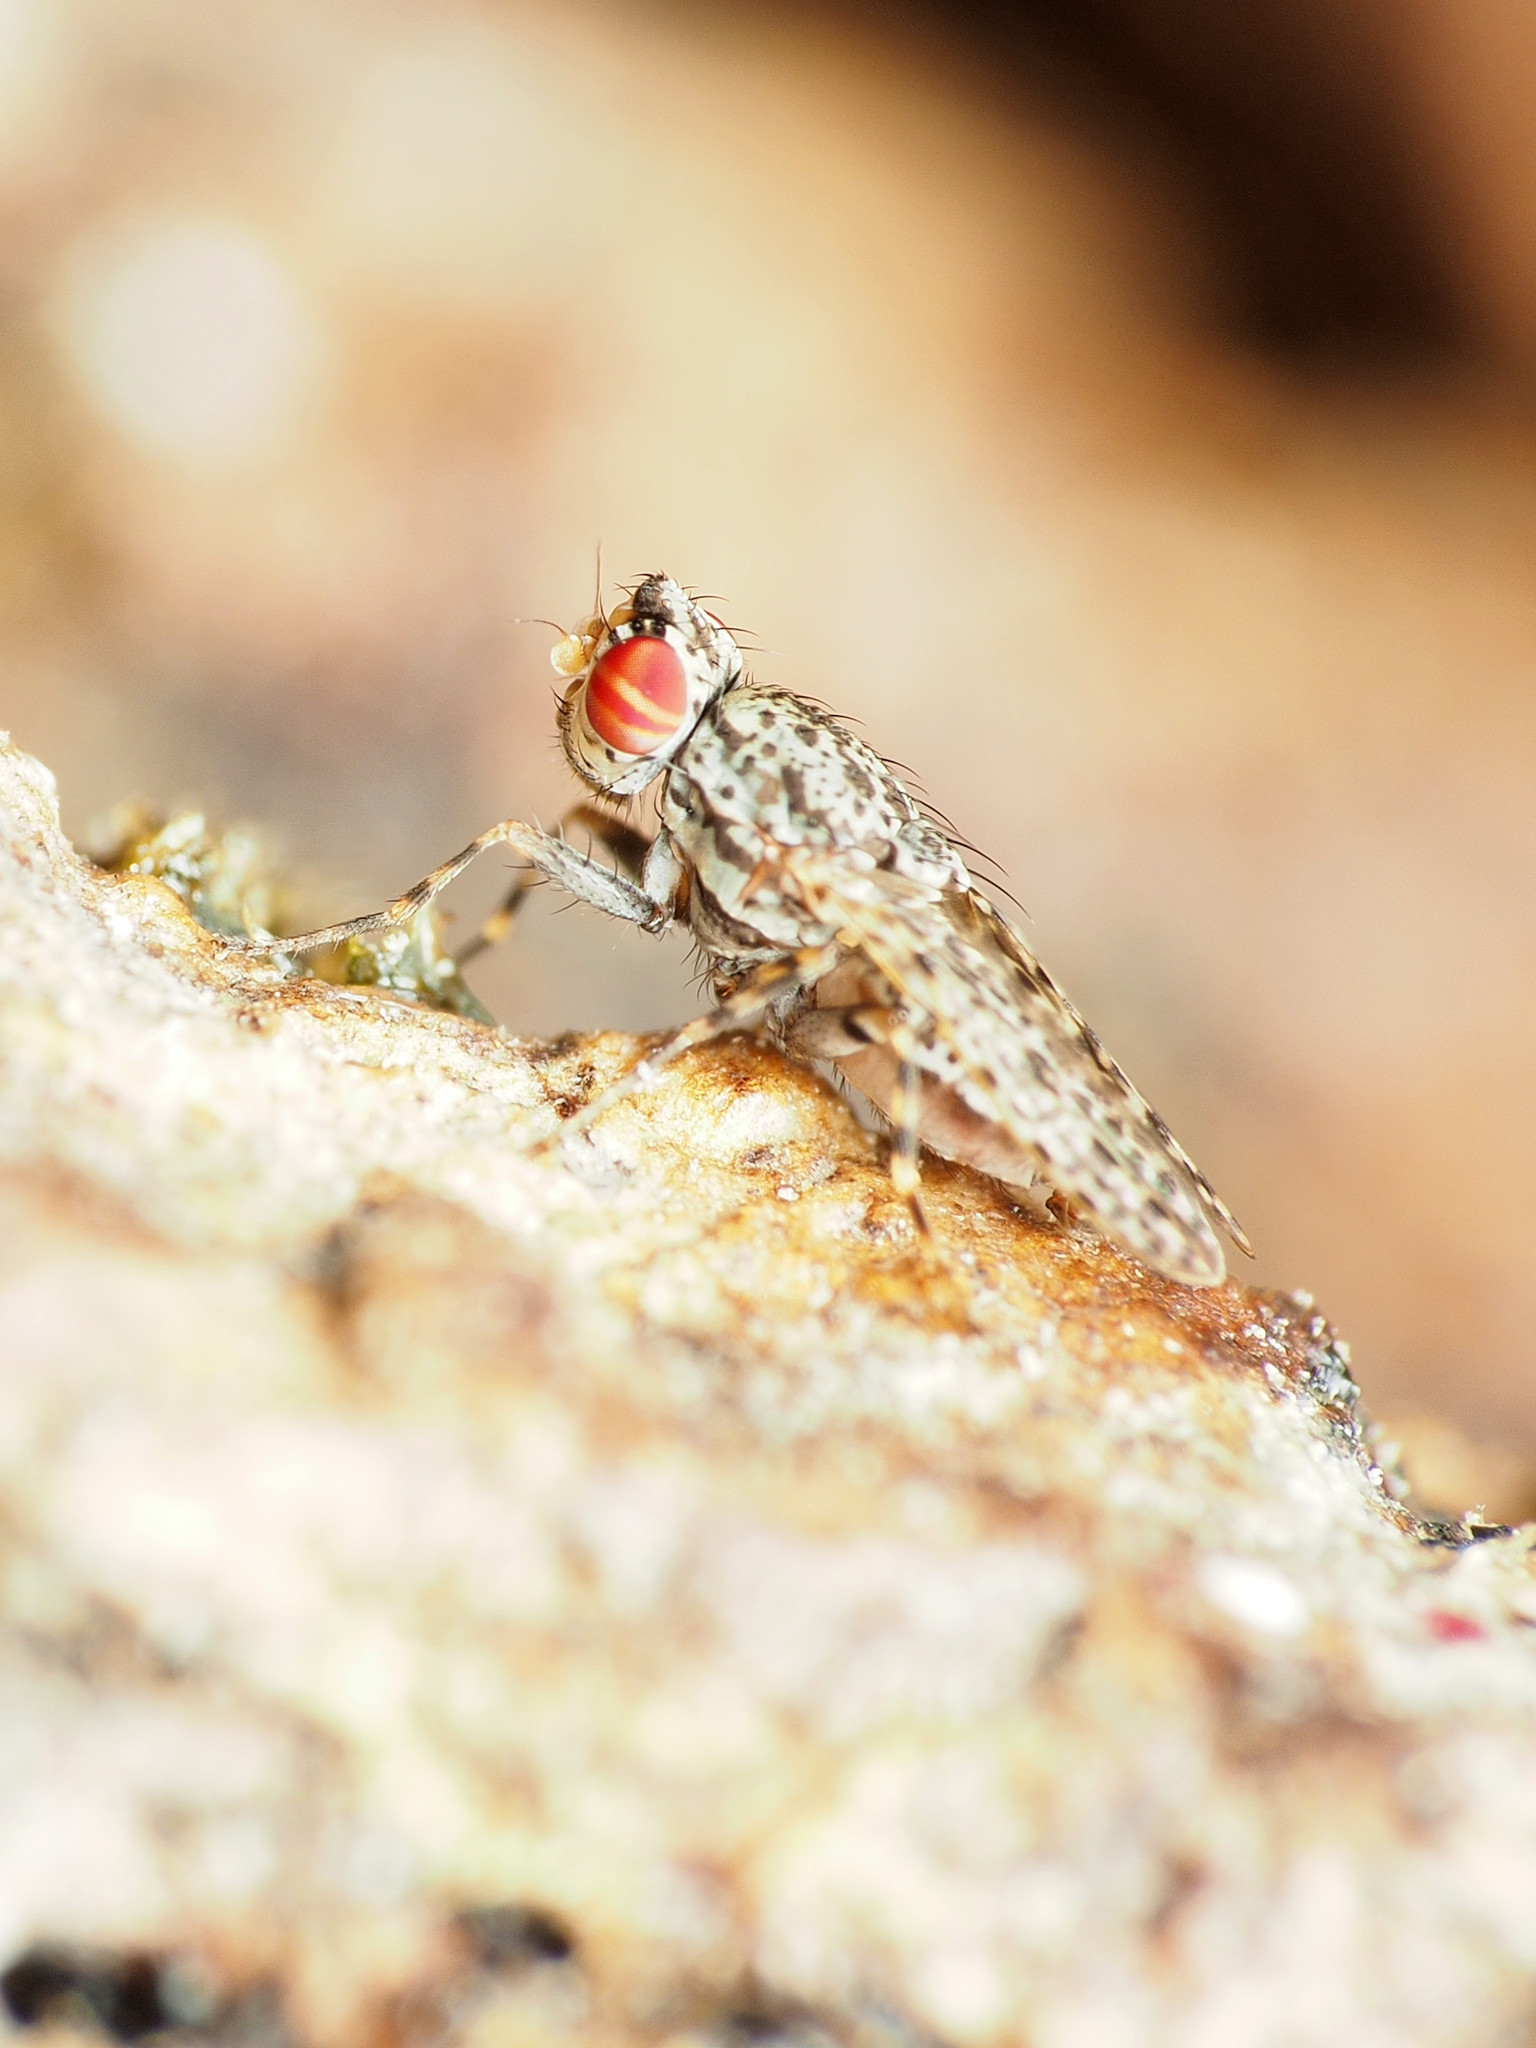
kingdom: Animalia
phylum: Arthropoda
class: Insecta
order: Diptera
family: Odiniidae
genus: Traginops
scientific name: Traginops irroratus
